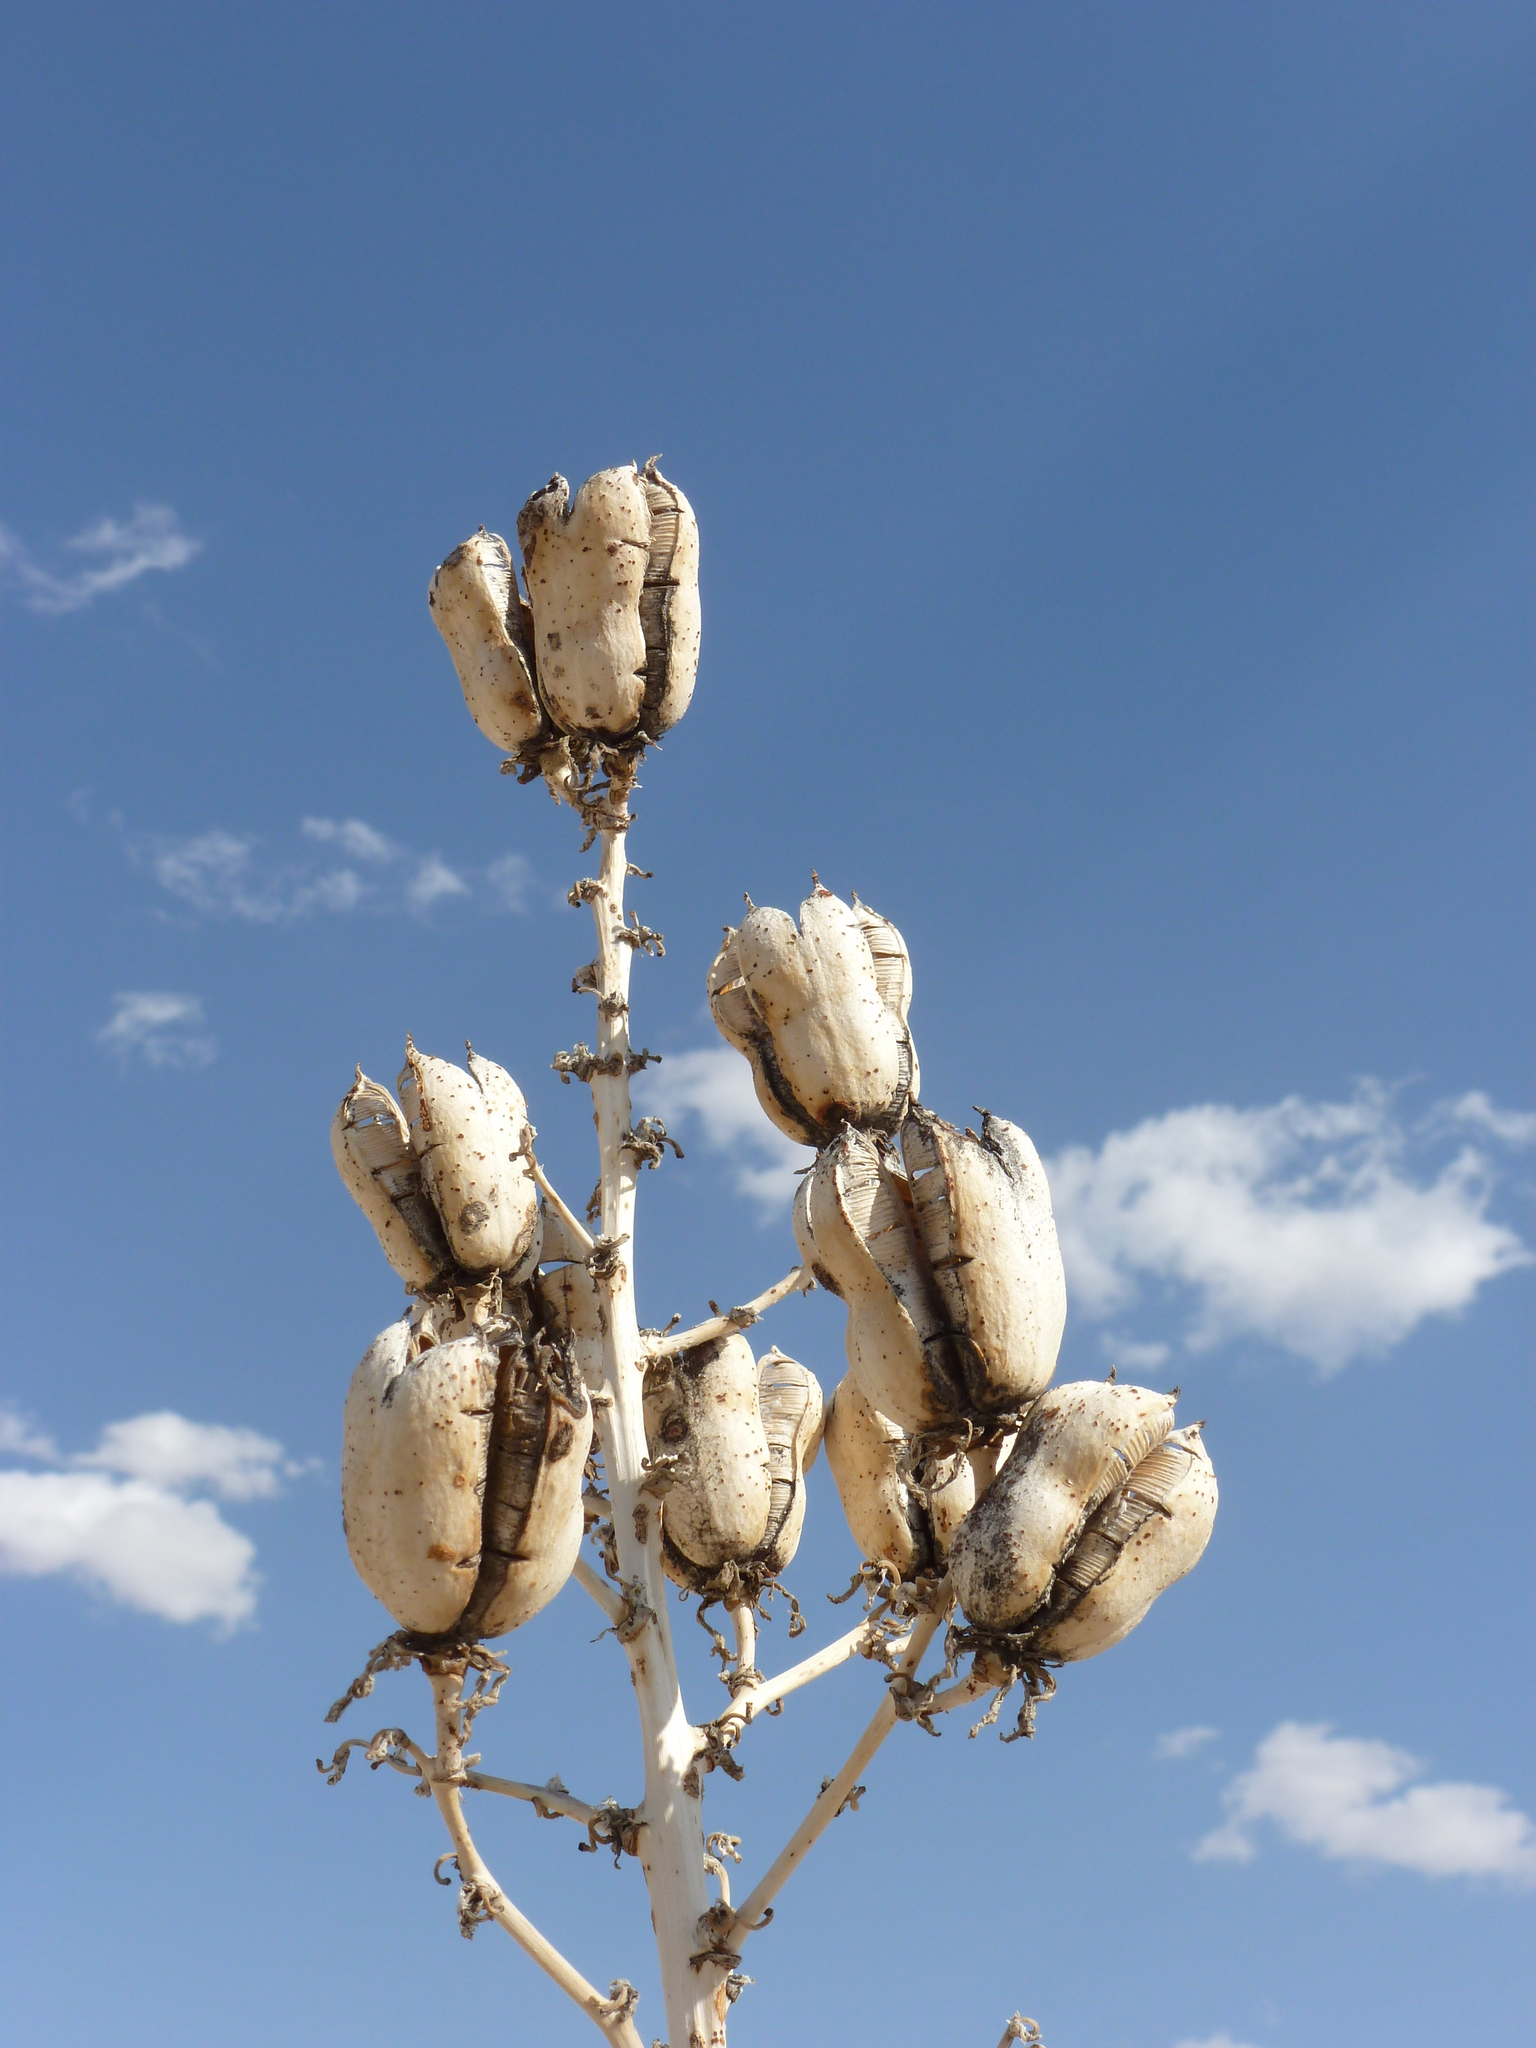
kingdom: Plantae
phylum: Tracheophyta
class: Liliopsida
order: Asparagales
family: Asparagaceae
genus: Yucca
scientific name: Yucca elata
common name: Palmella
